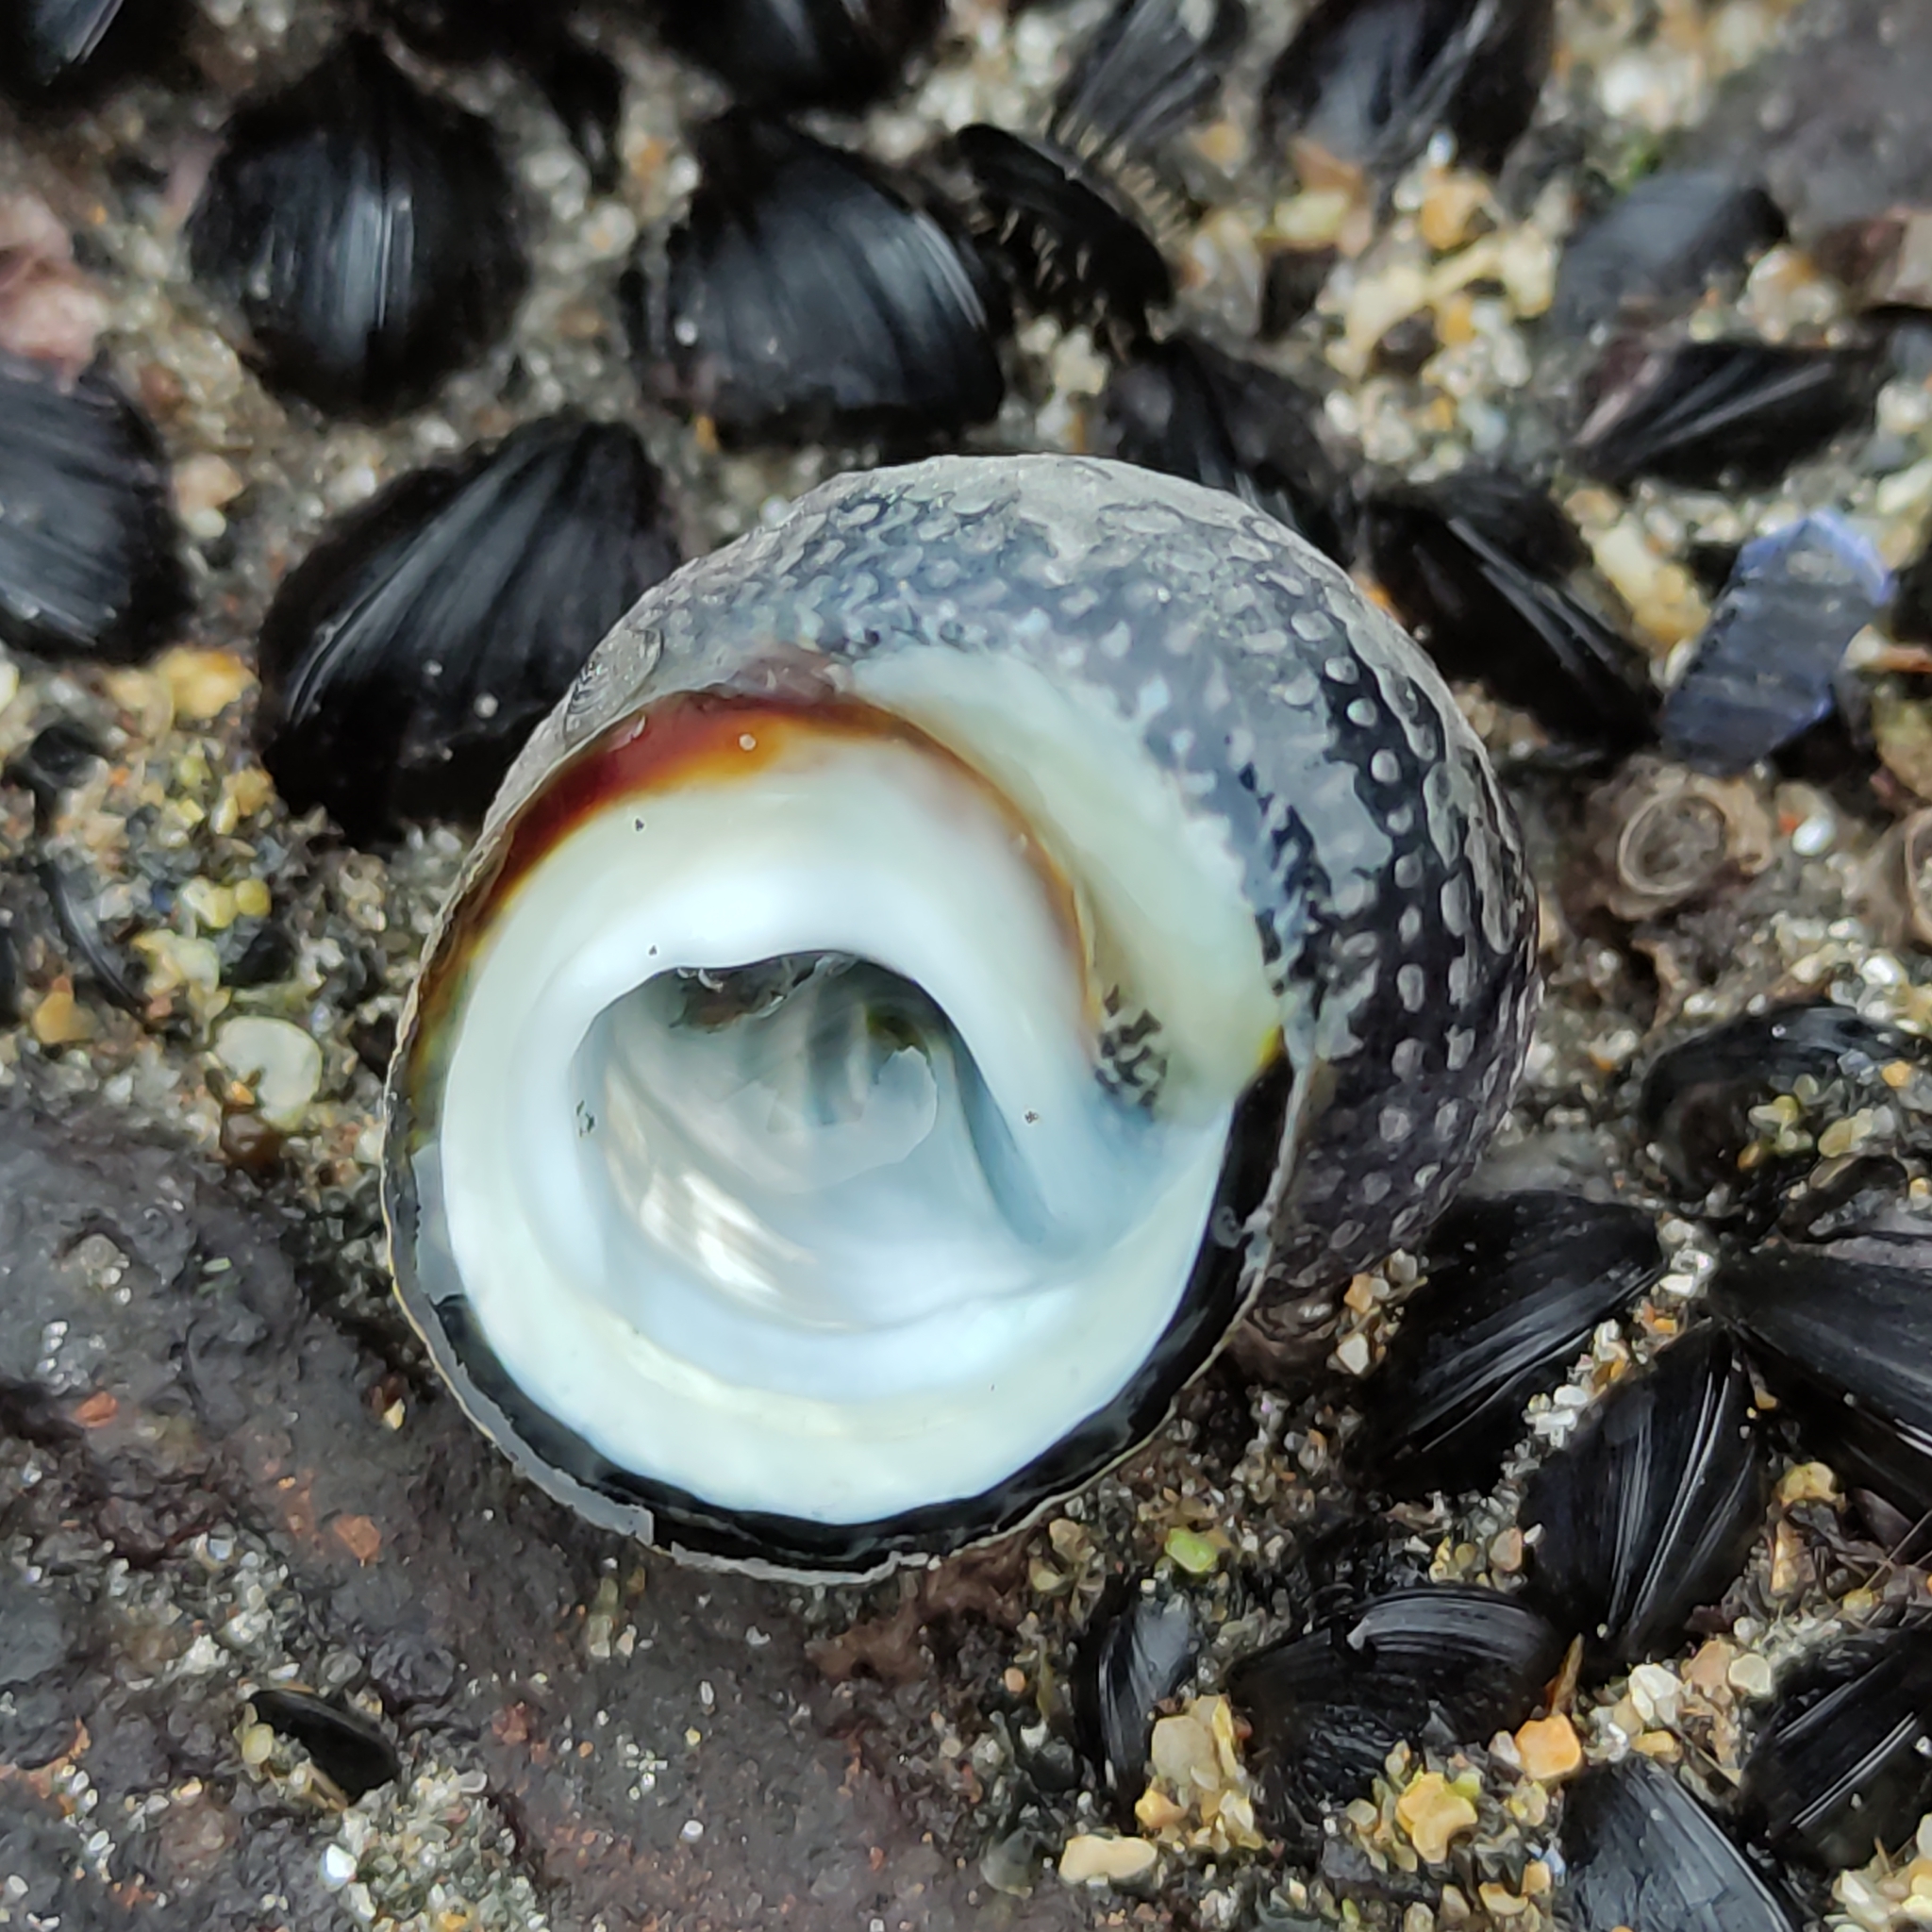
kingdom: Animalia
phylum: Mollusca
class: Gastropoda
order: Trochida
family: Trochidae
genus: Diloma
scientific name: Diloma aethiops
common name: Scorched monodont
